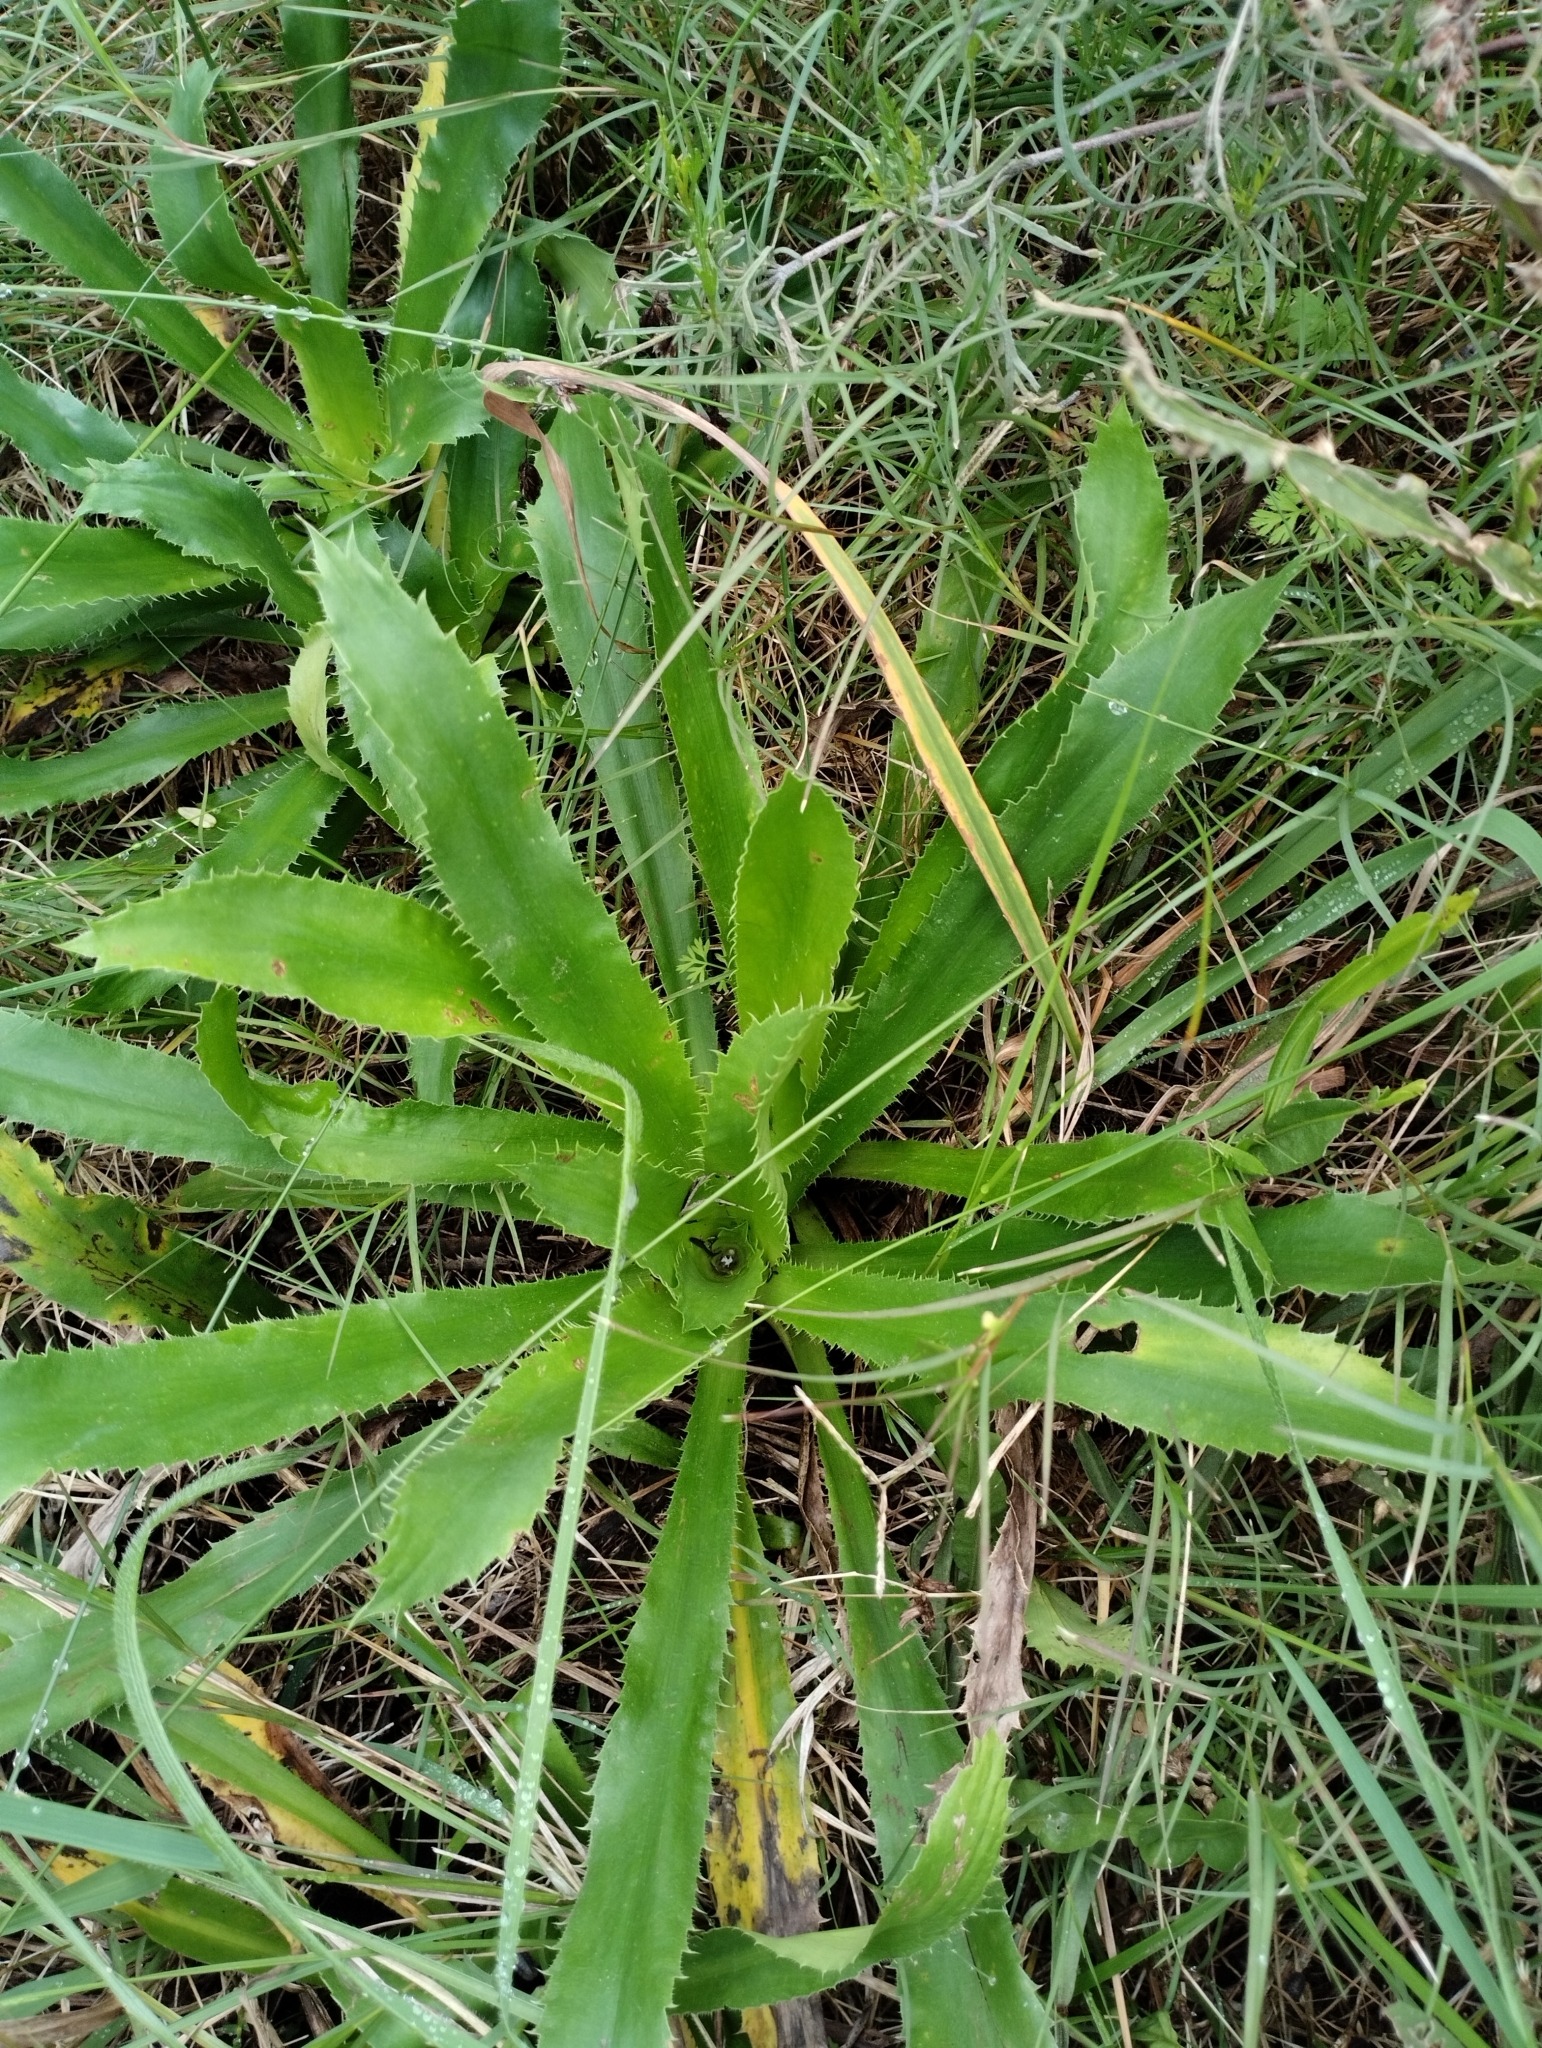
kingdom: Plantae
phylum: Tracheophyta
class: Magnoliopsida
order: Apiales
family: Apiaceae
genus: Eryngium
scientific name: Eryngium elegans
